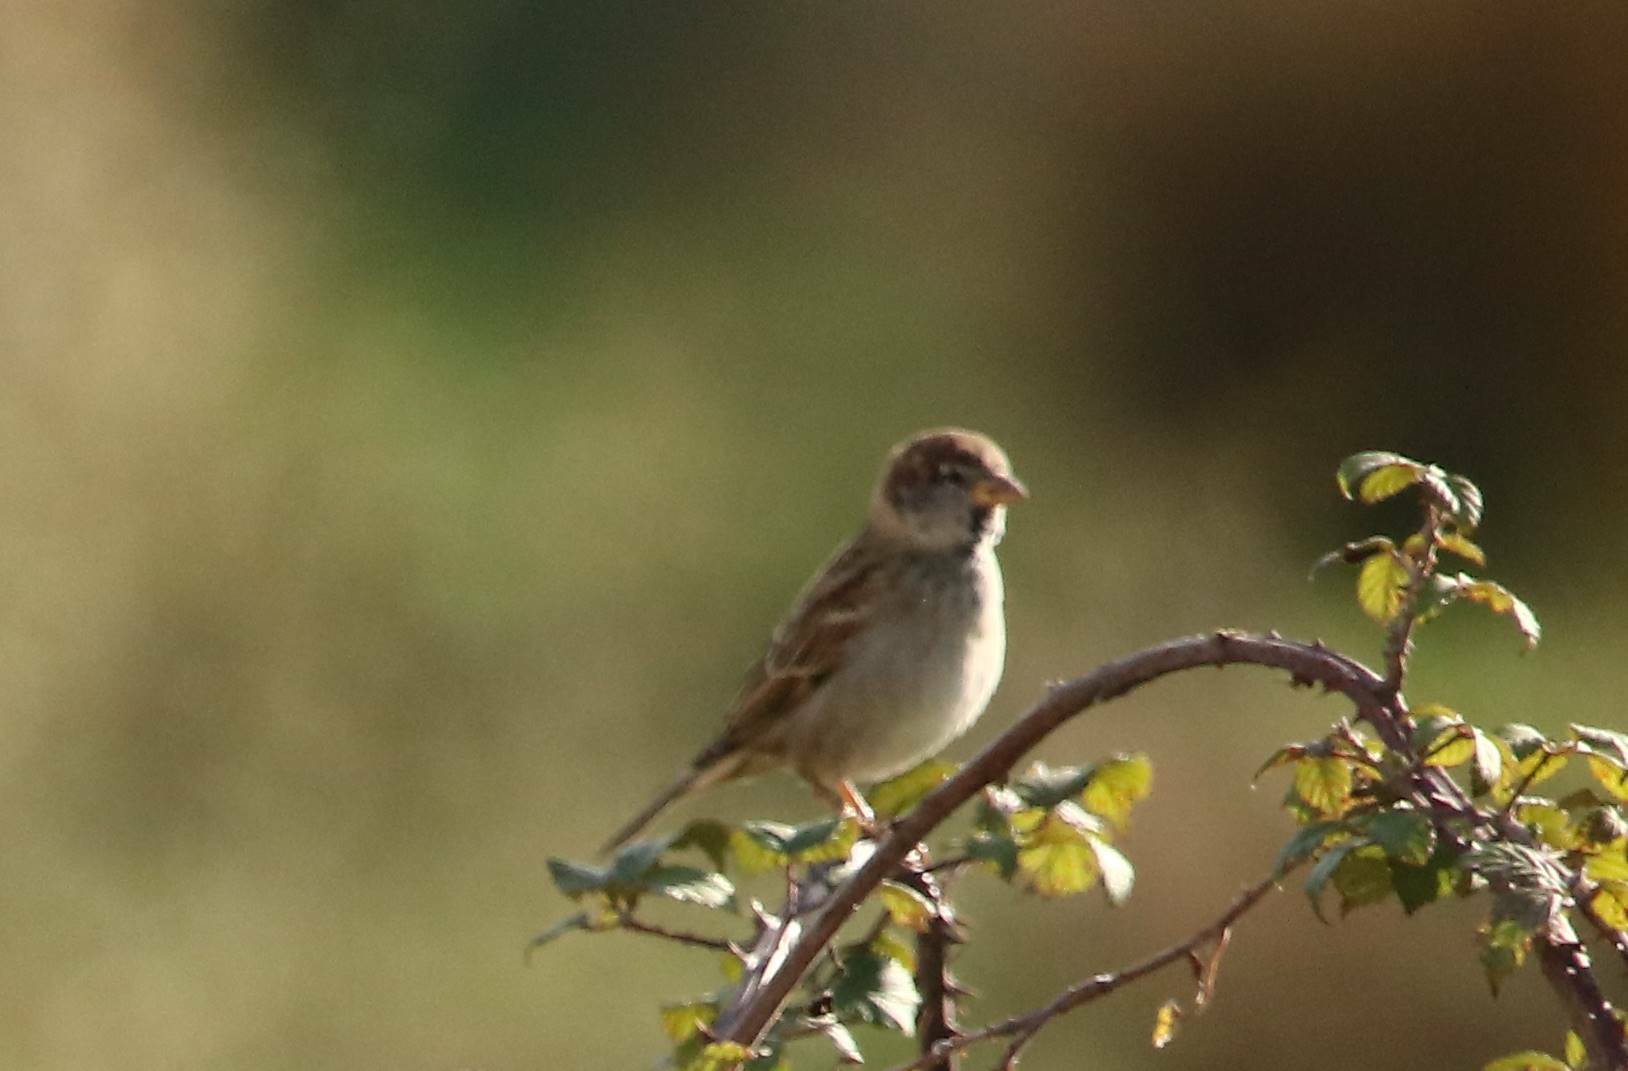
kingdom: Animalia
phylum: Chordata
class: Aves
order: Passeriformes
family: Passeridae
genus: Passer
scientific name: Passer hispaniolensis
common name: Spanish sparrow
